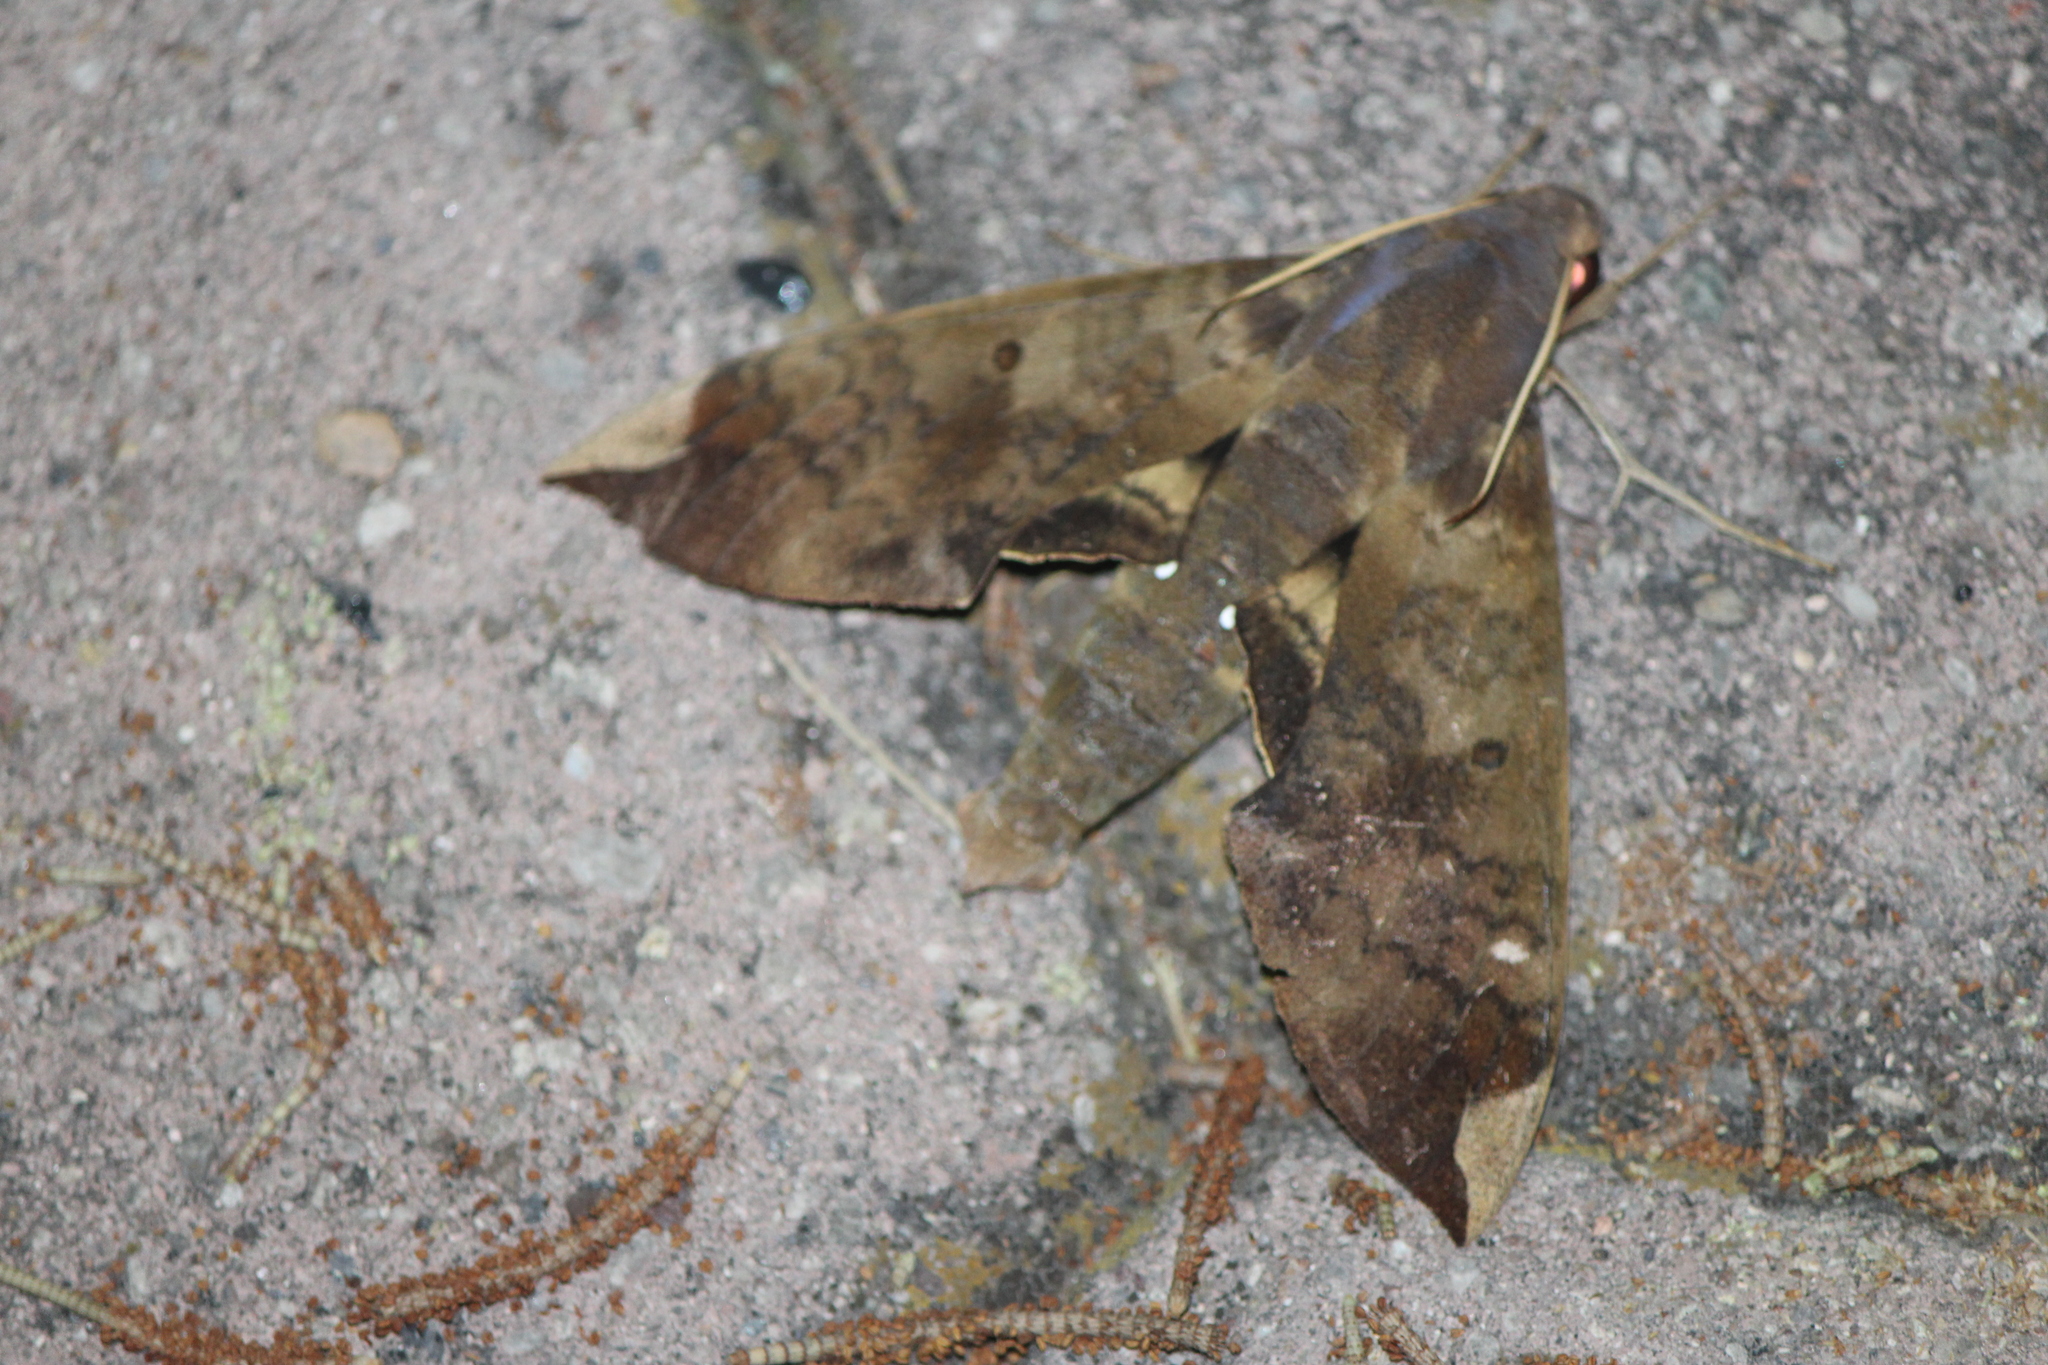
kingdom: Animalia
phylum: Arthropoda
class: Insecta
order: Lepidoptera
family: Sphingidae
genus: Pachylia
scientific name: Pachylia ficus
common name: Fig sphinx
